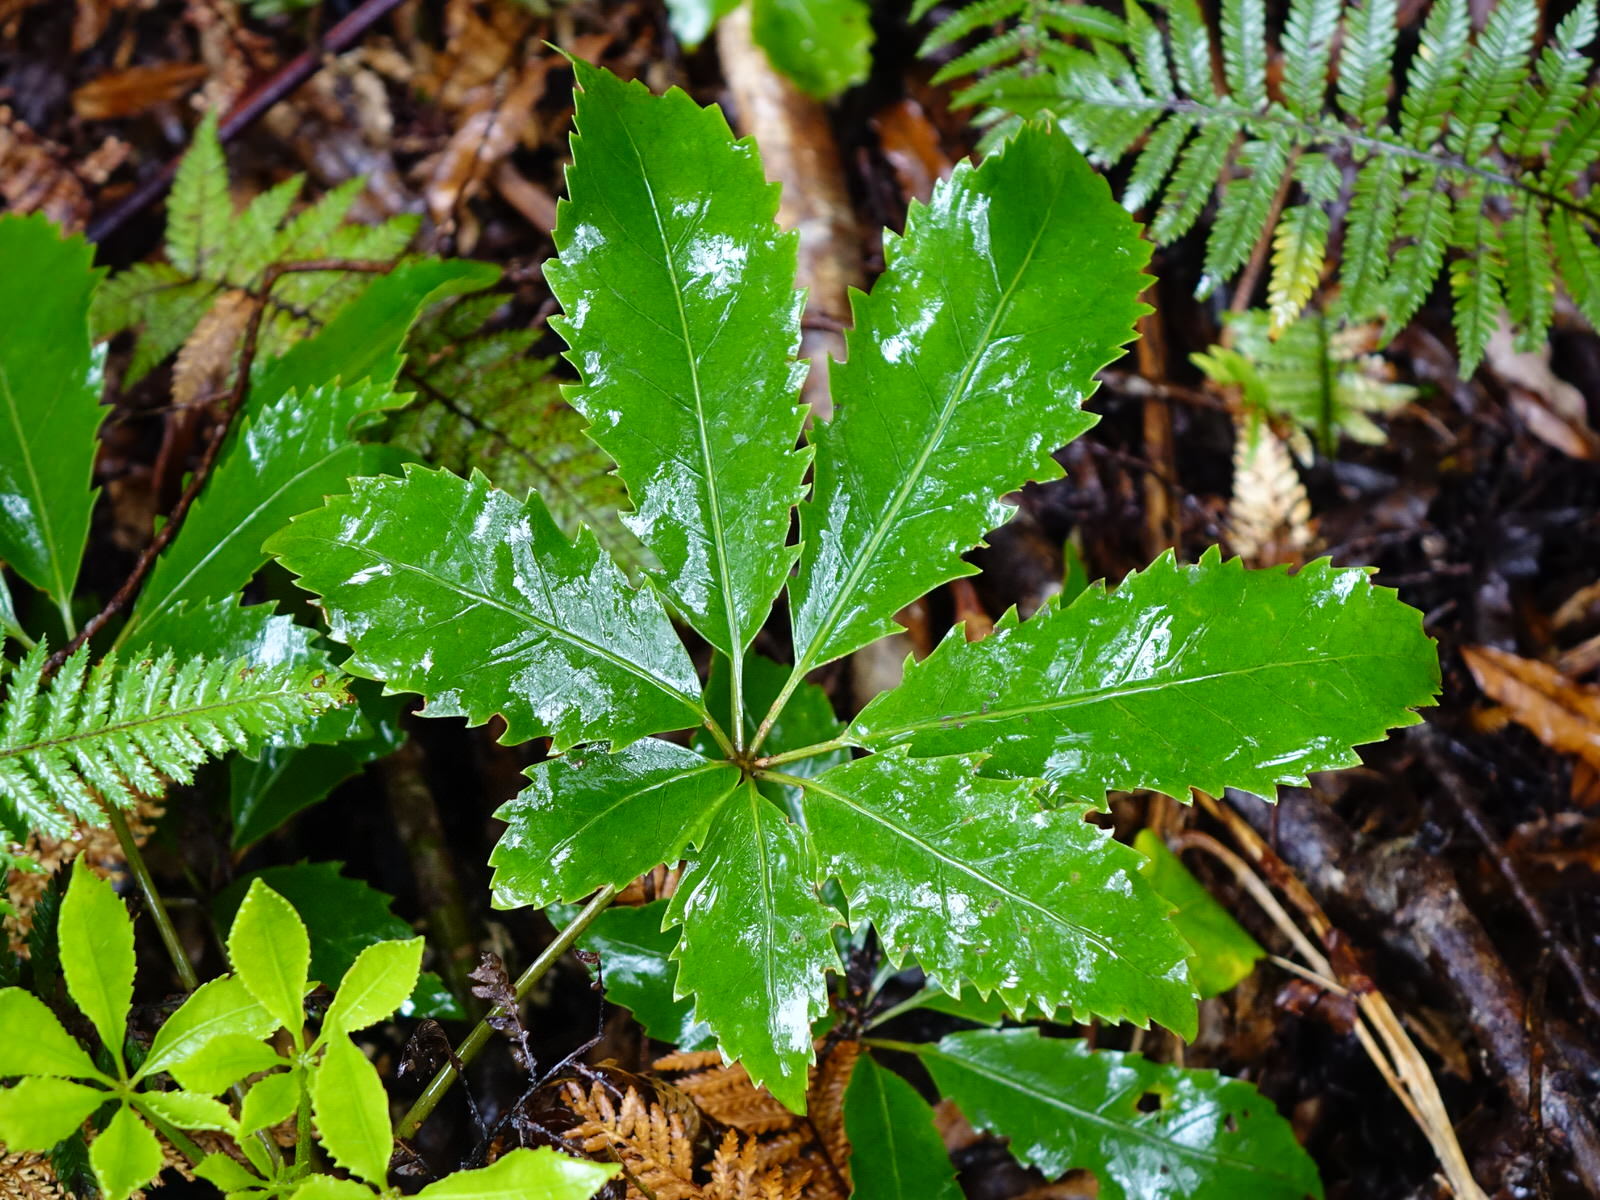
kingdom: Plantae
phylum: Tracheophyta
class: Magnoliopsida
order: Apiales
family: Araliaceae
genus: Neopanax
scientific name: Neopanax arboreus
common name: Five-fingers
